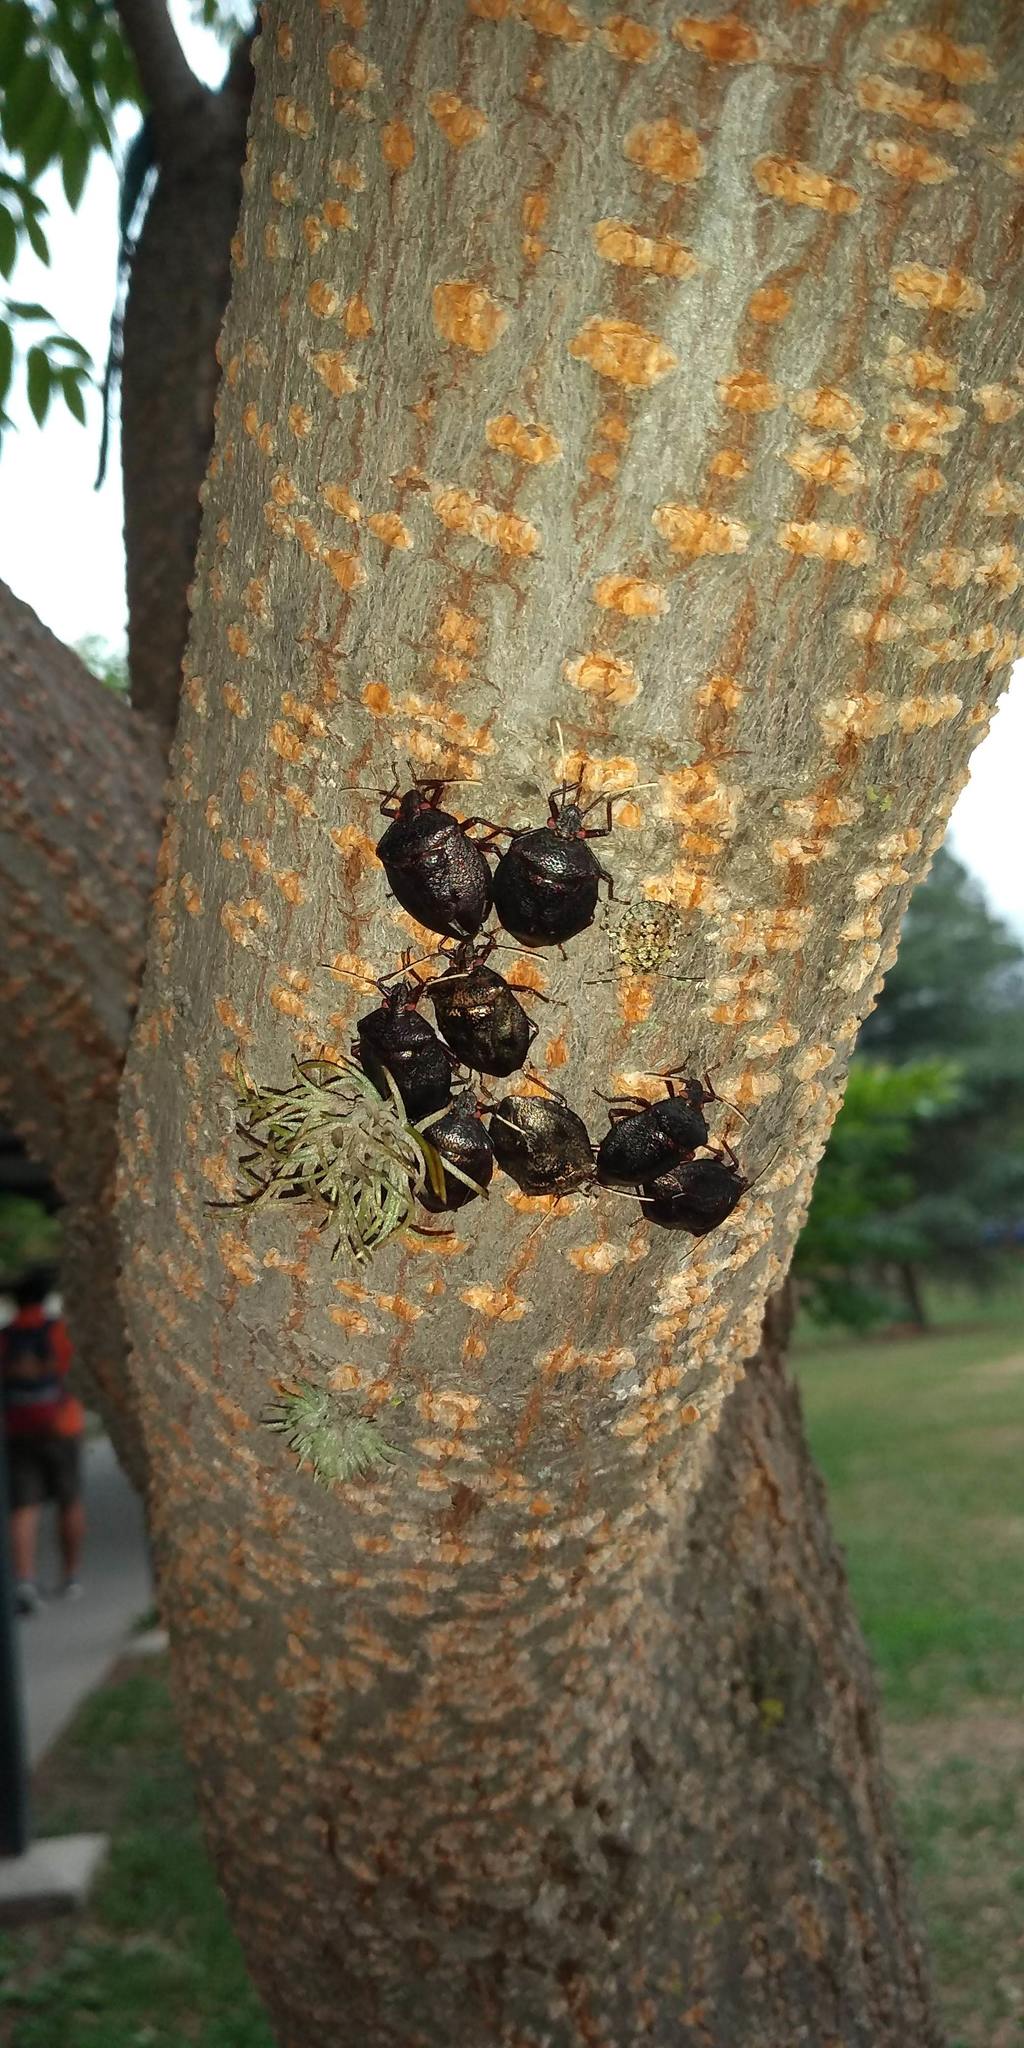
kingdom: Animalia
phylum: Arthropoda
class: Insecta
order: Hemiptera
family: Pentatomidae
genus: Antiteuchus
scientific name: Antiteuchus mixtus
